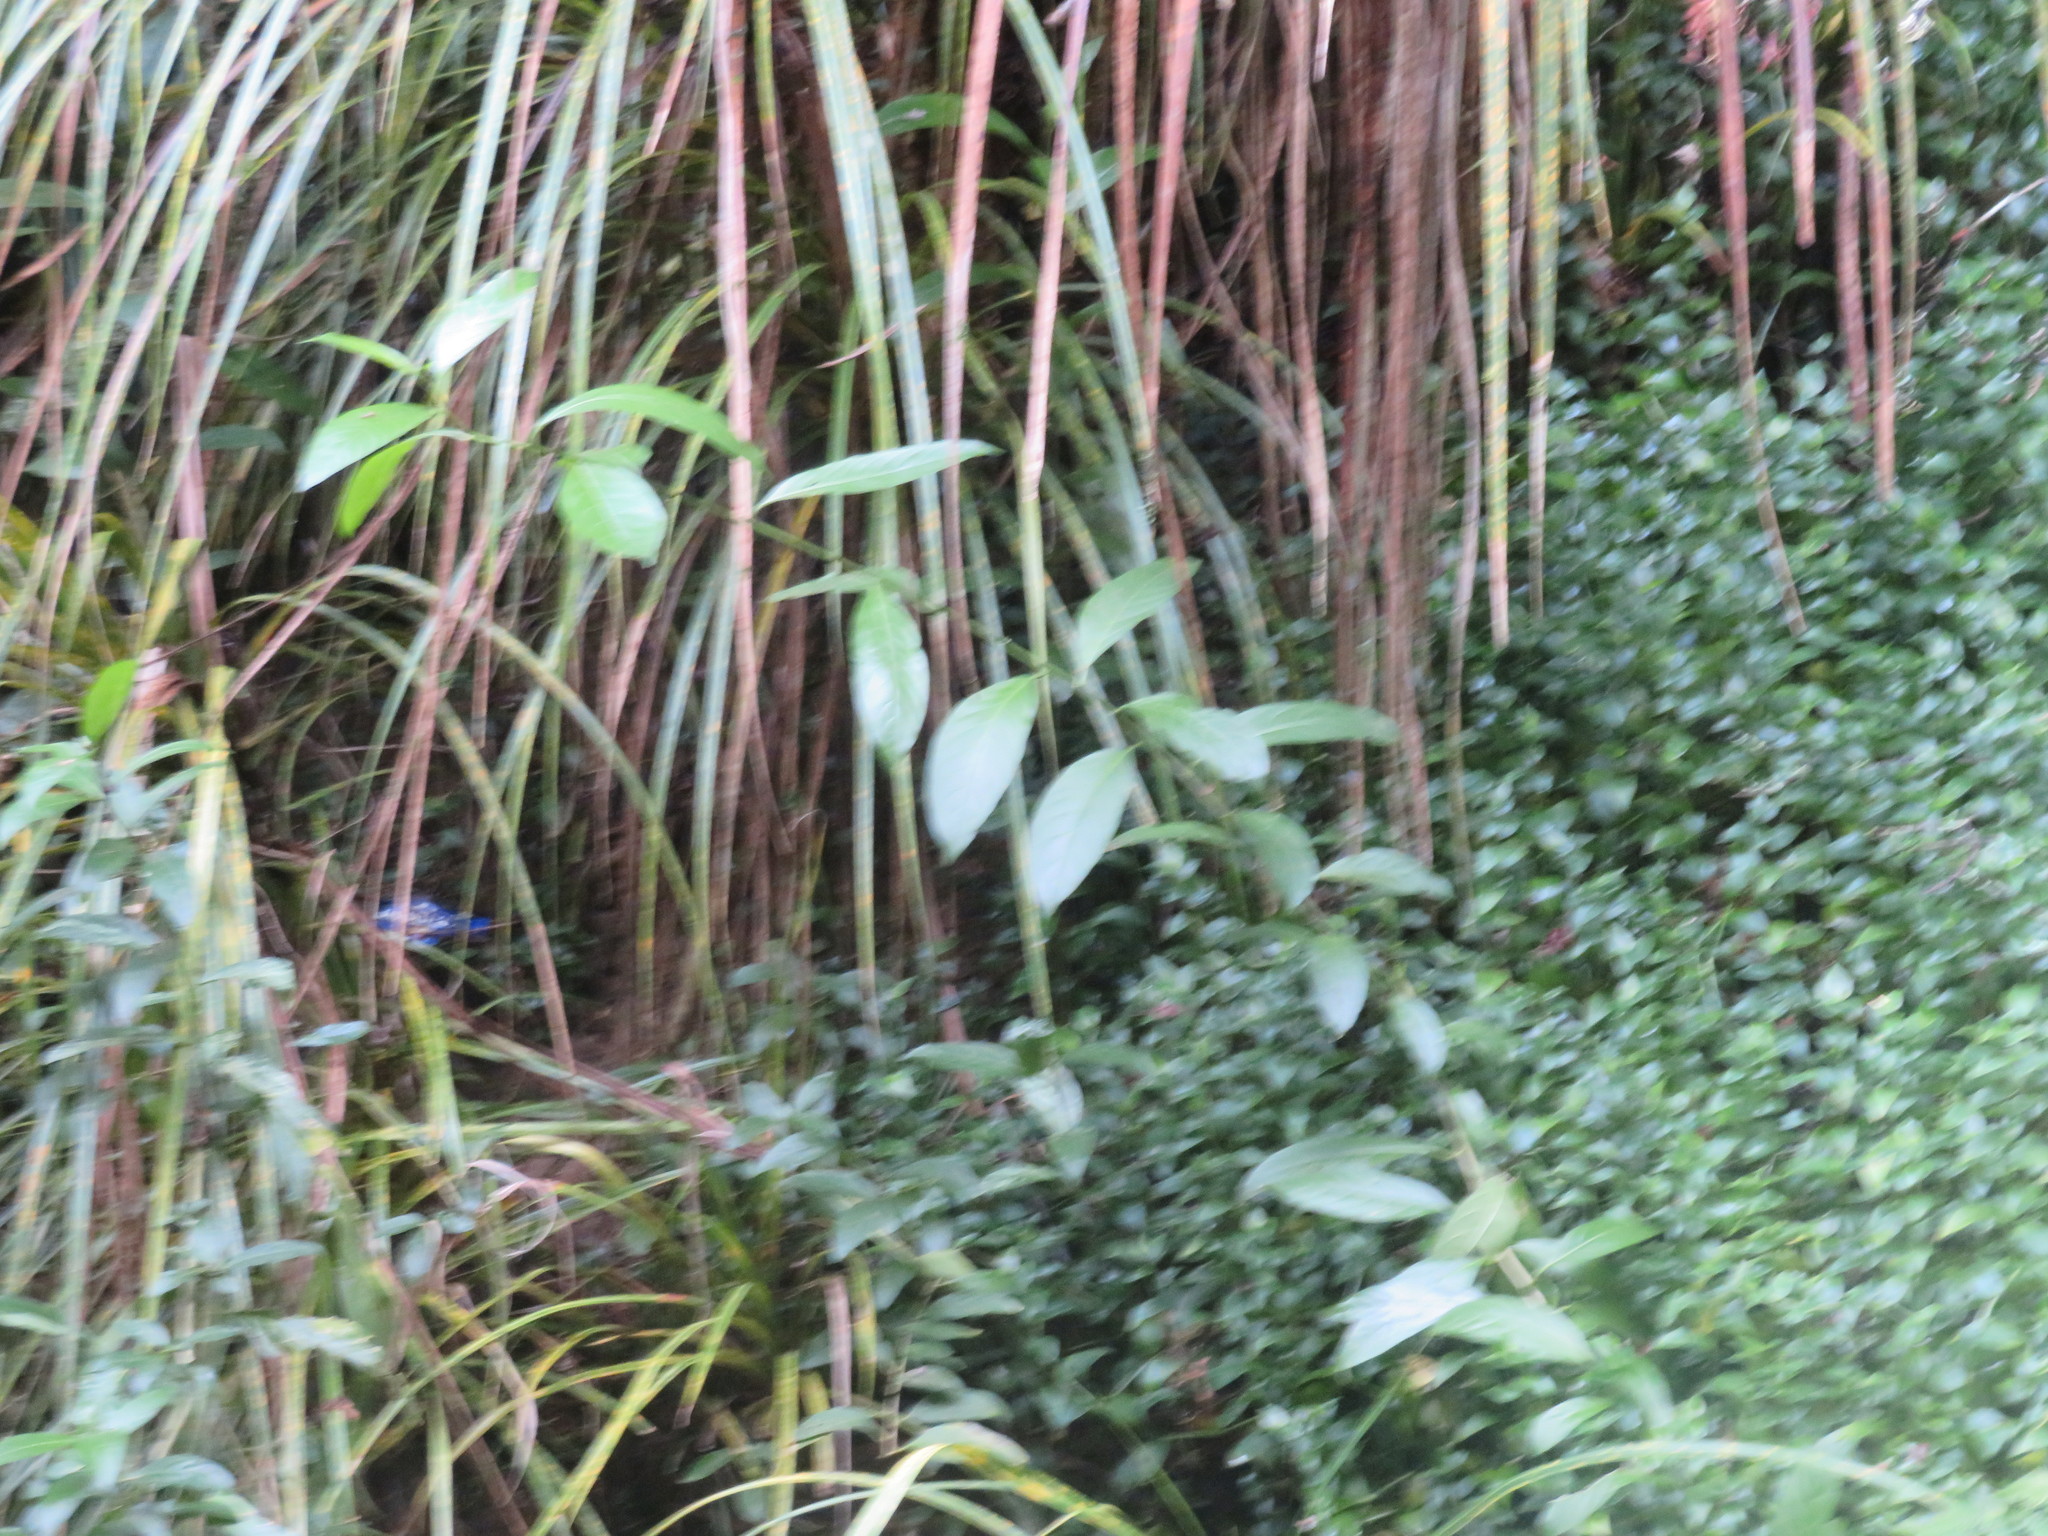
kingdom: Plantae
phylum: Tracheophyta
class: Magnoliopsida
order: Solanales
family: Solanaceae
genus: Cestrum
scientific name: Cestrum nocturnum
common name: Night jessamine
